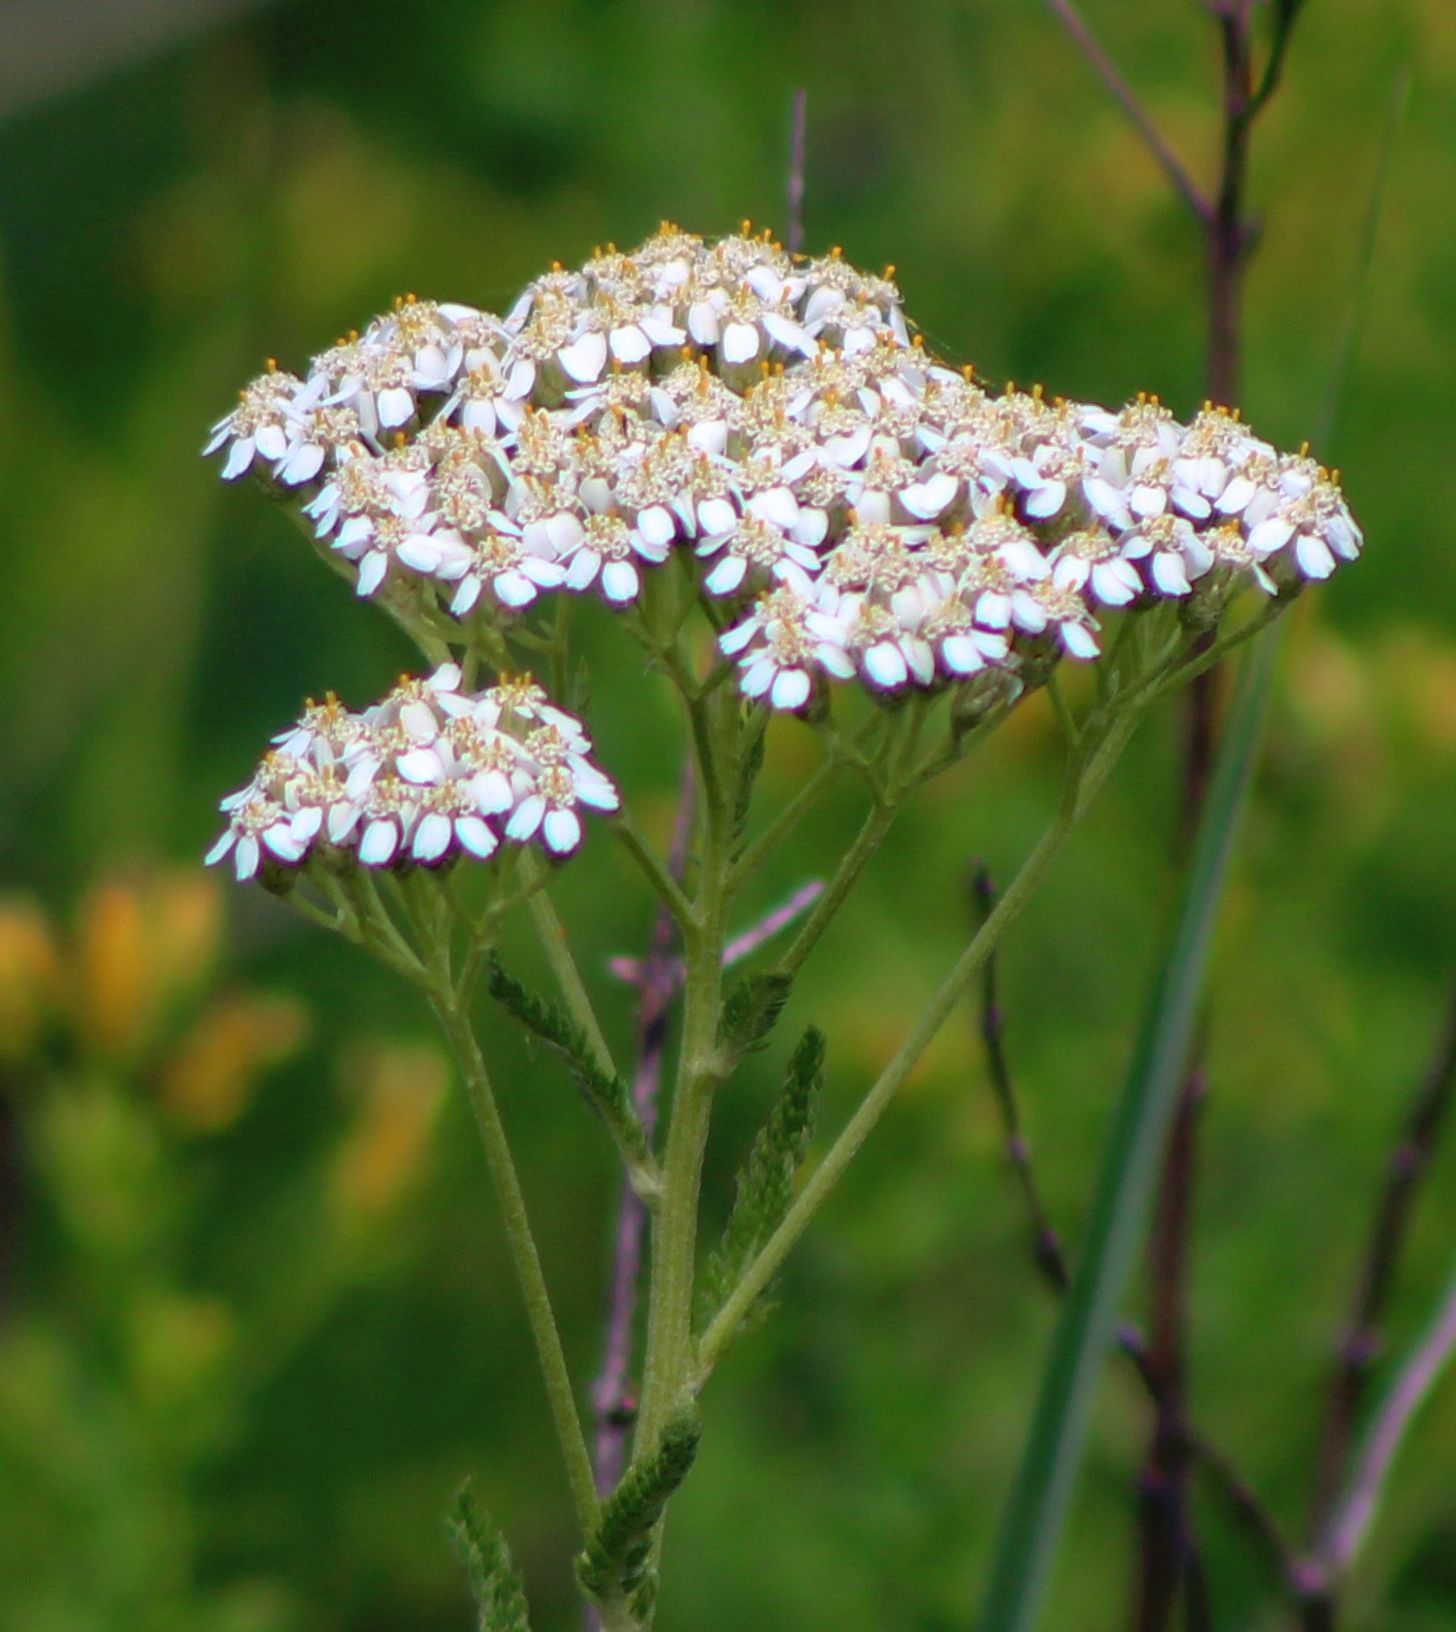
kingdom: Plantae
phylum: Tracheophyta
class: Magnoliopsida
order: Asterales
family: Asteraceae
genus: Achillea
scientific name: Achillea millefolium
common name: Yarrow
